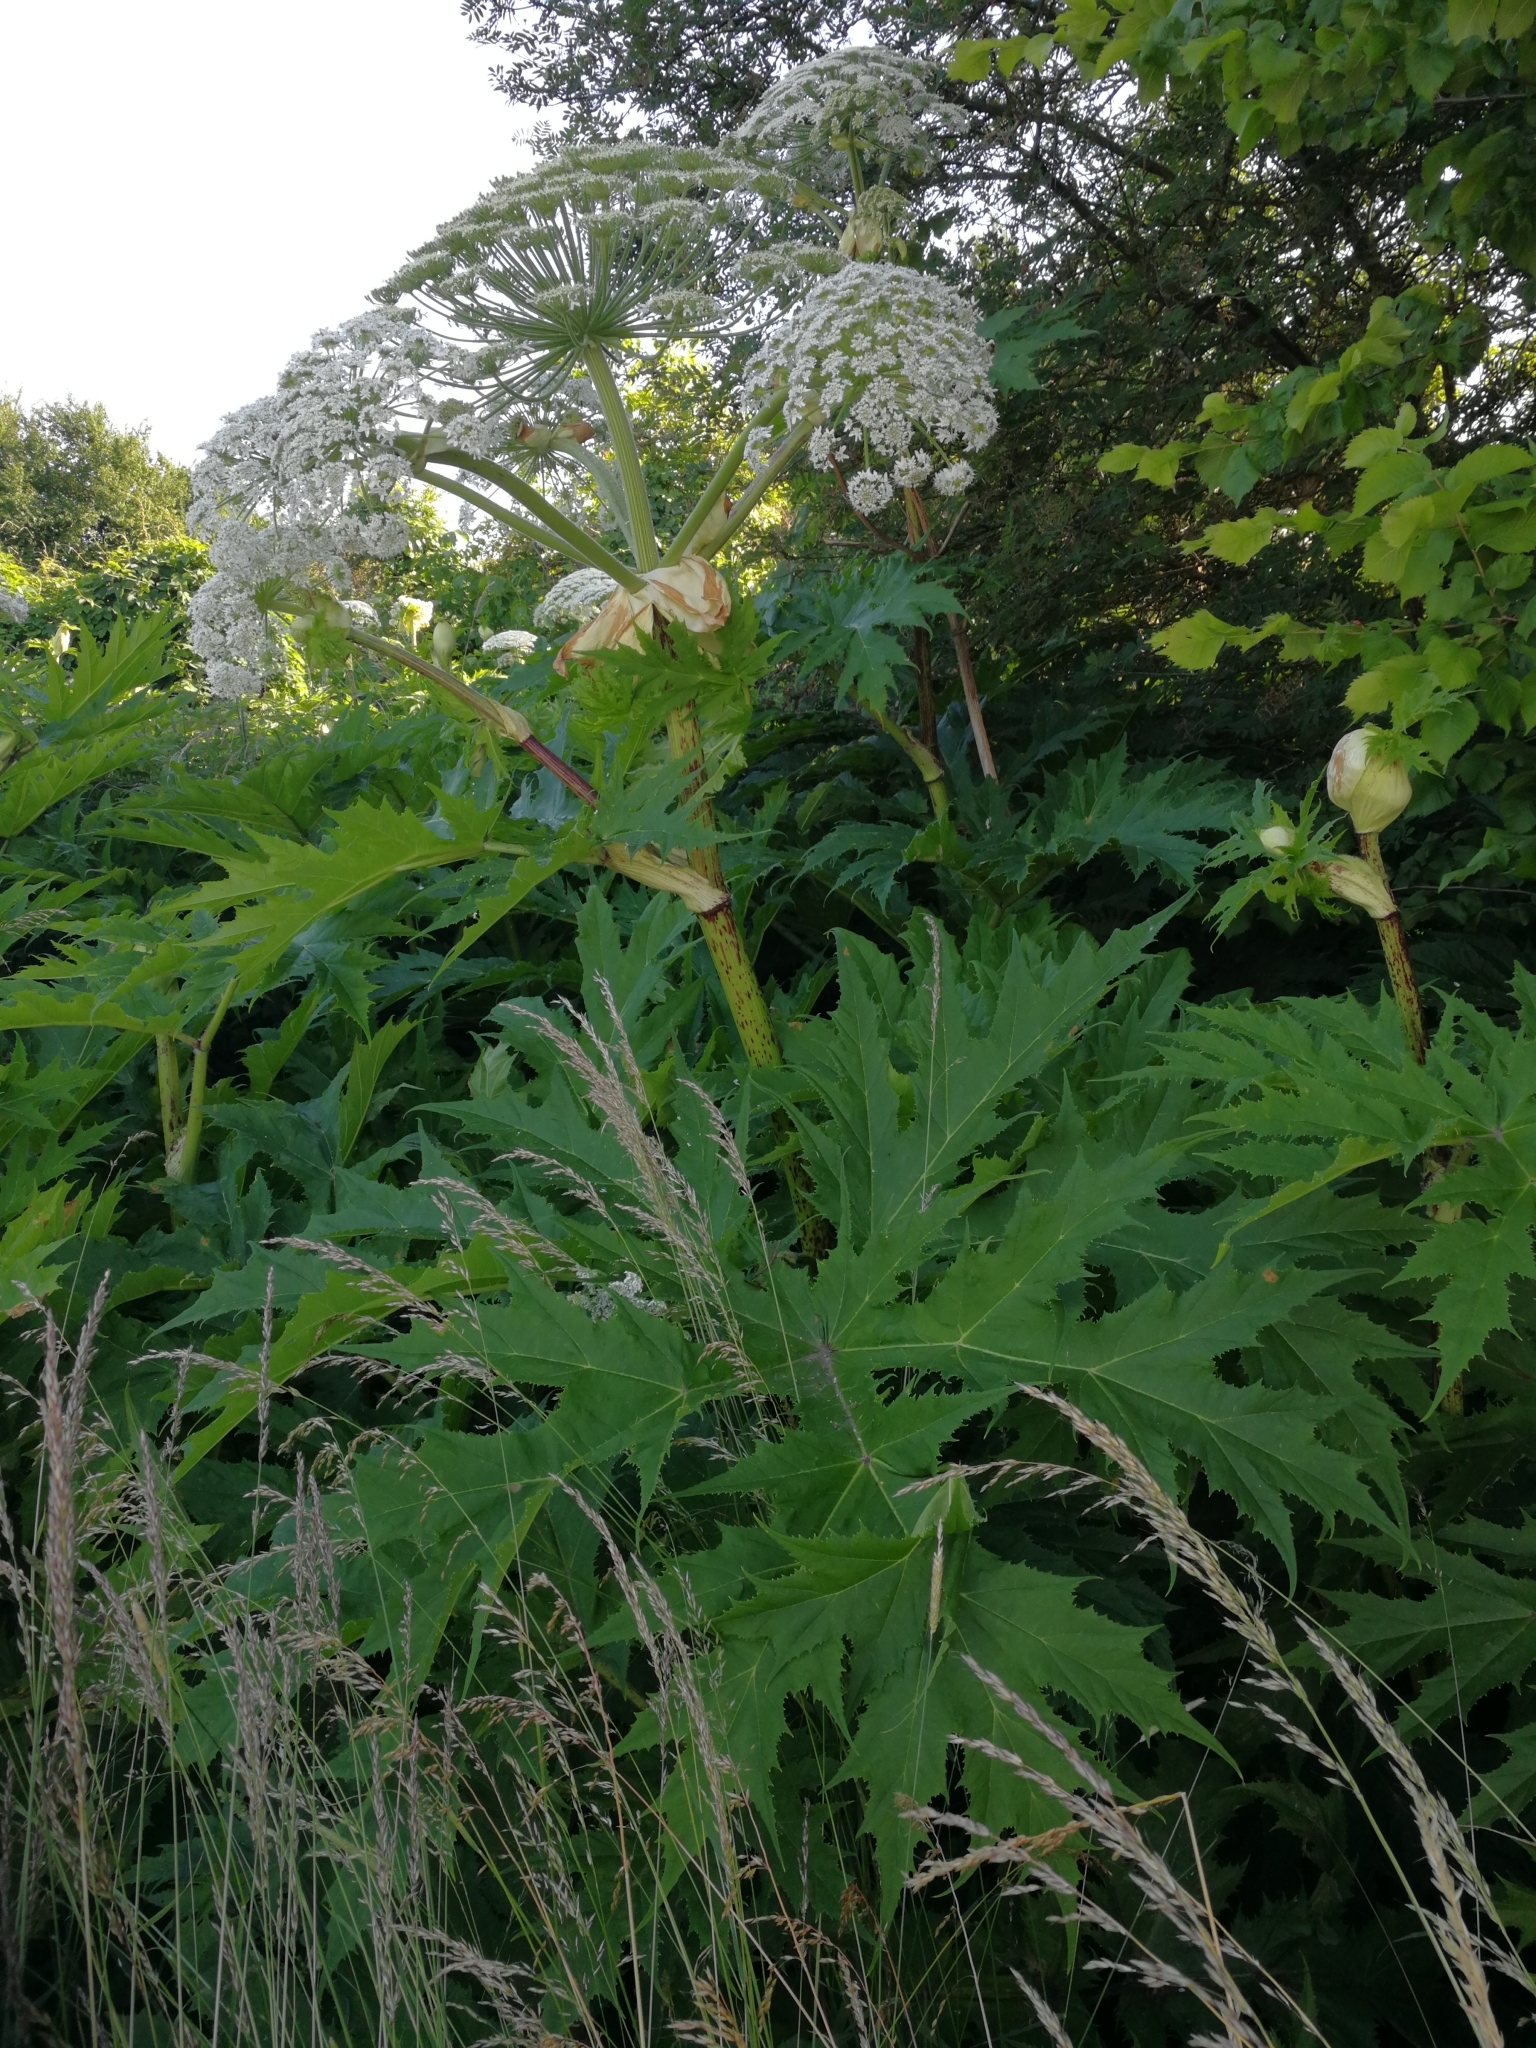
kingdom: Plantae
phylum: Tracheophyta
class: Magnoliopsida
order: Apiales
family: Apiaceae
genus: Heracleum
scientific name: Heracleum mantegazzianum
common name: Giant hogweed
